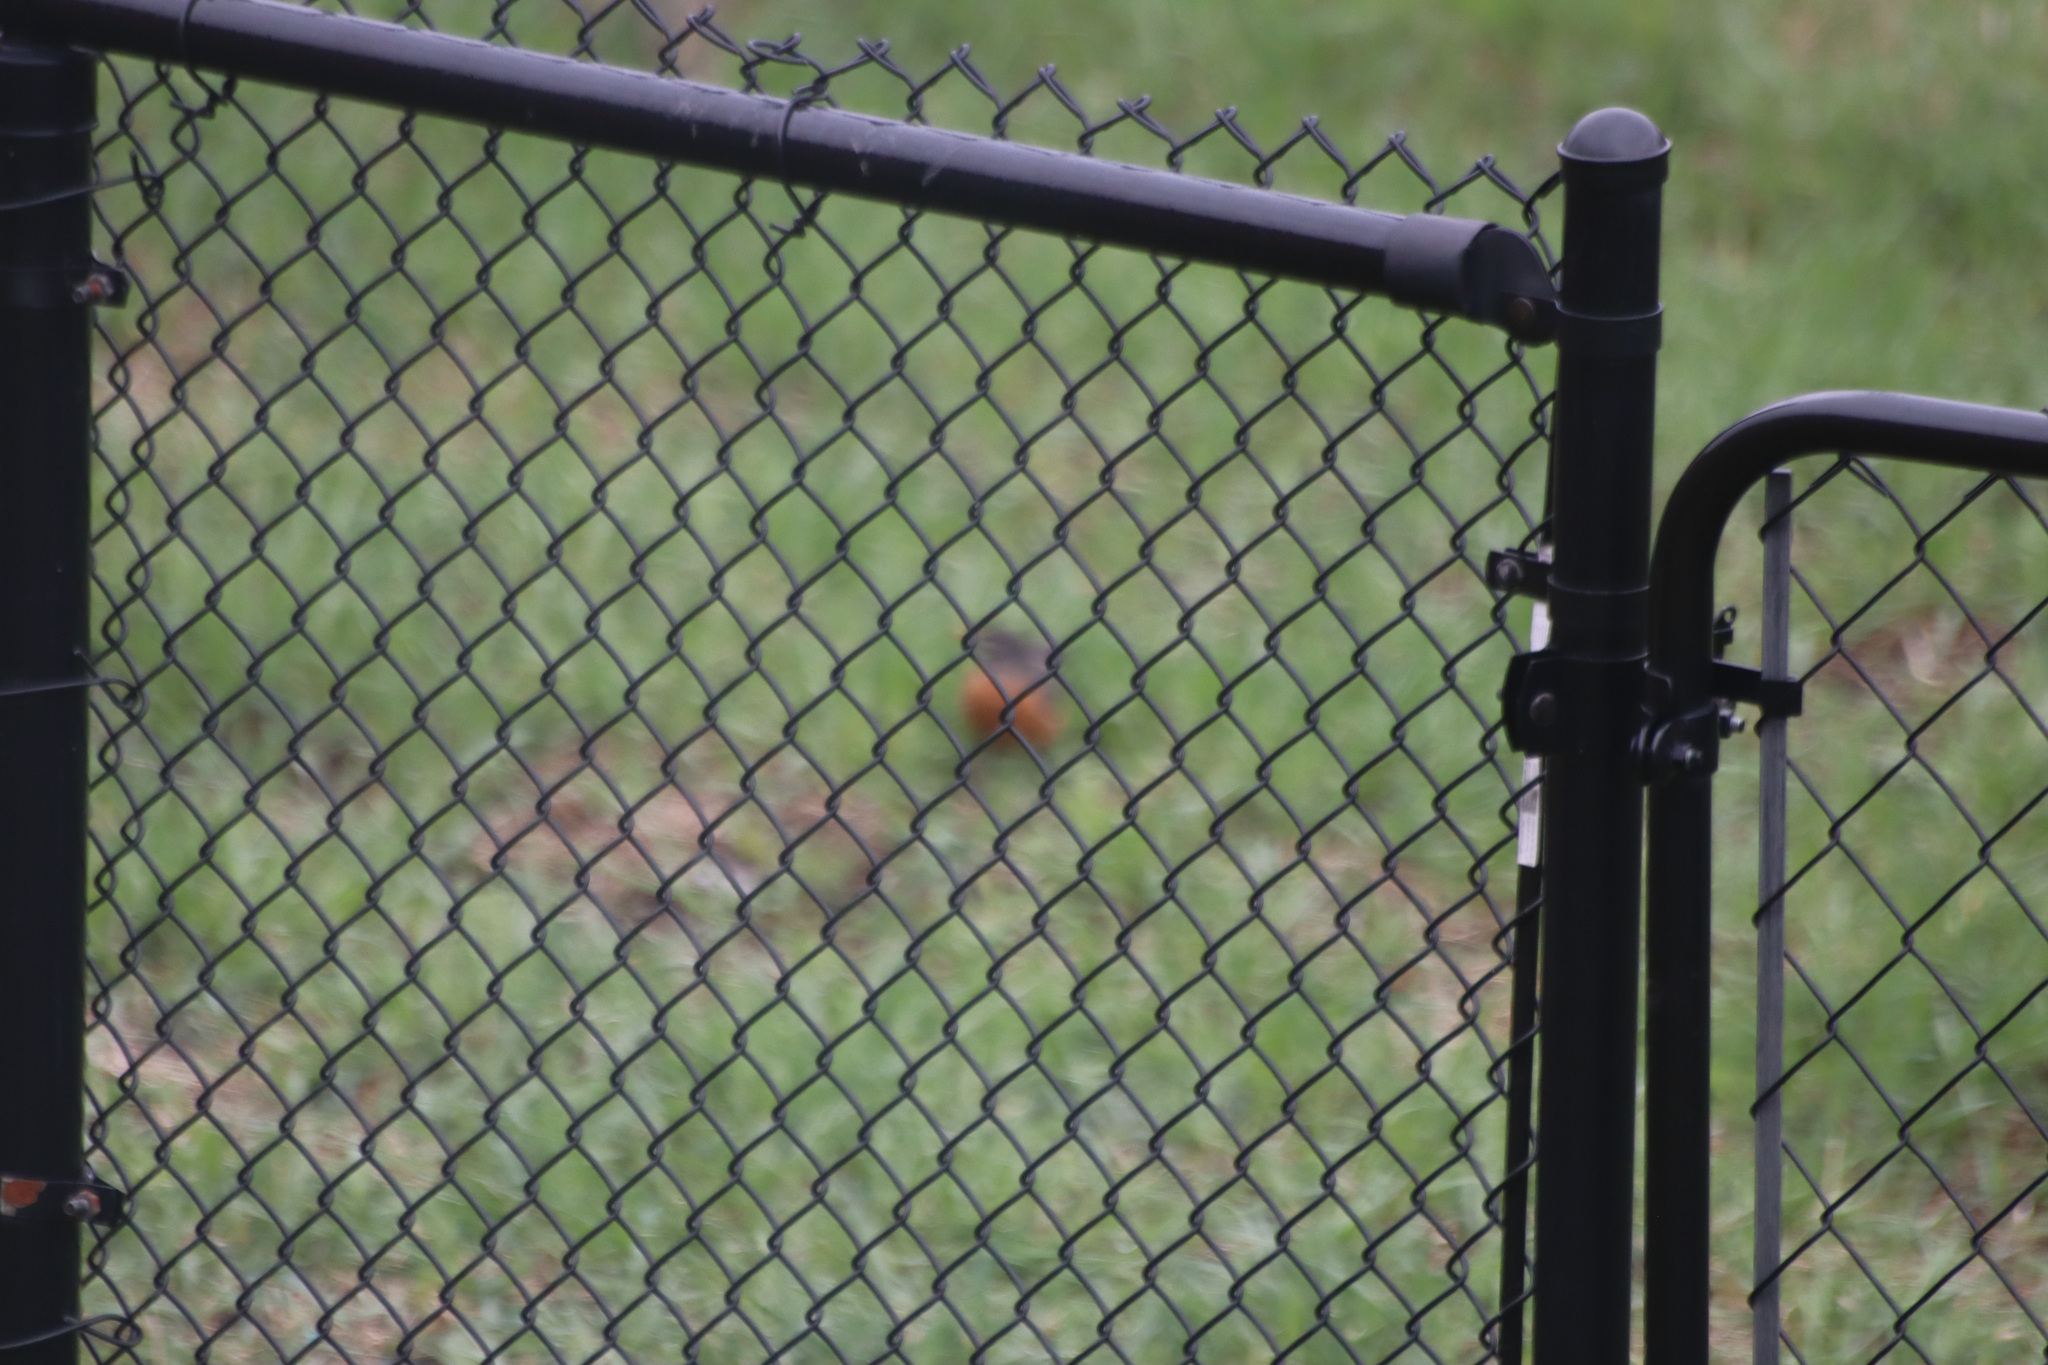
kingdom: Animalia
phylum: Chordata
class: Aves
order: Passeriformes
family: Turdidae
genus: Turdus
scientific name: Turdus migratorius
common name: American robin
